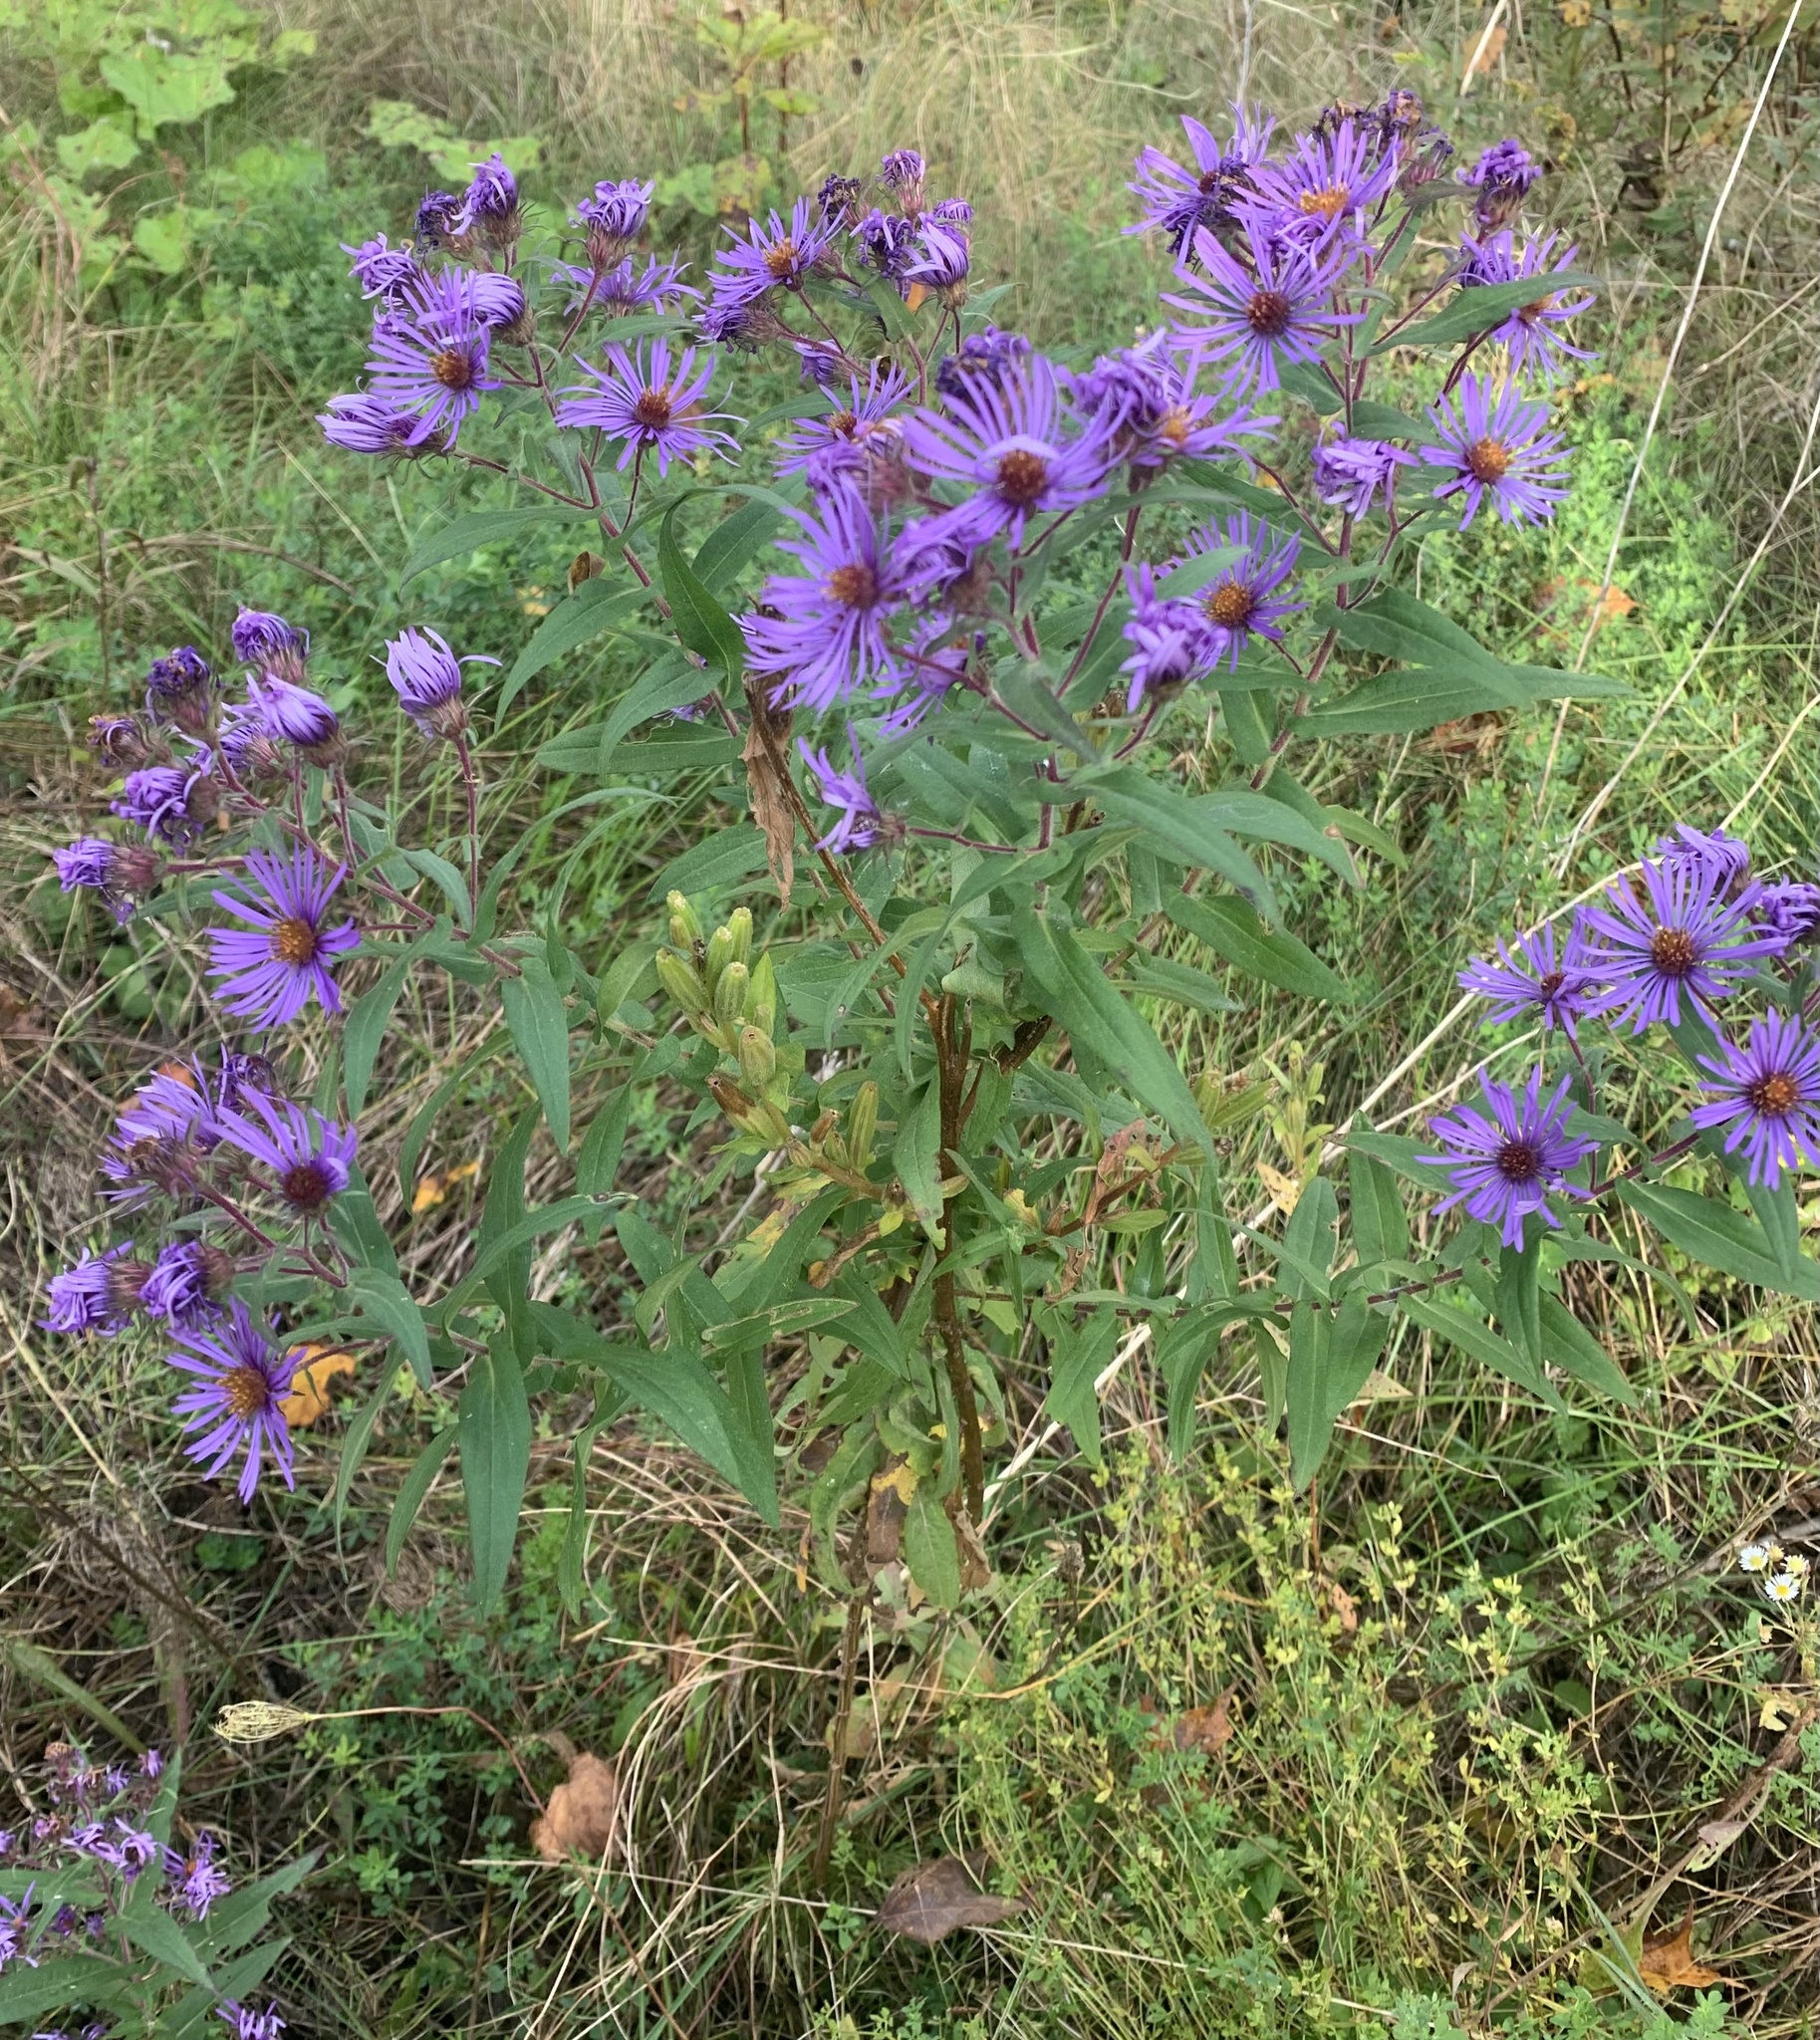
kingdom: Plantae
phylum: Tracheophyta
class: Magnoliopsida
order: Asterales
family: Asteraceae
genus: Symphyotrichum
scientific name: Symphyotrichum novae-angliae
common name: Michaelmas daisy
